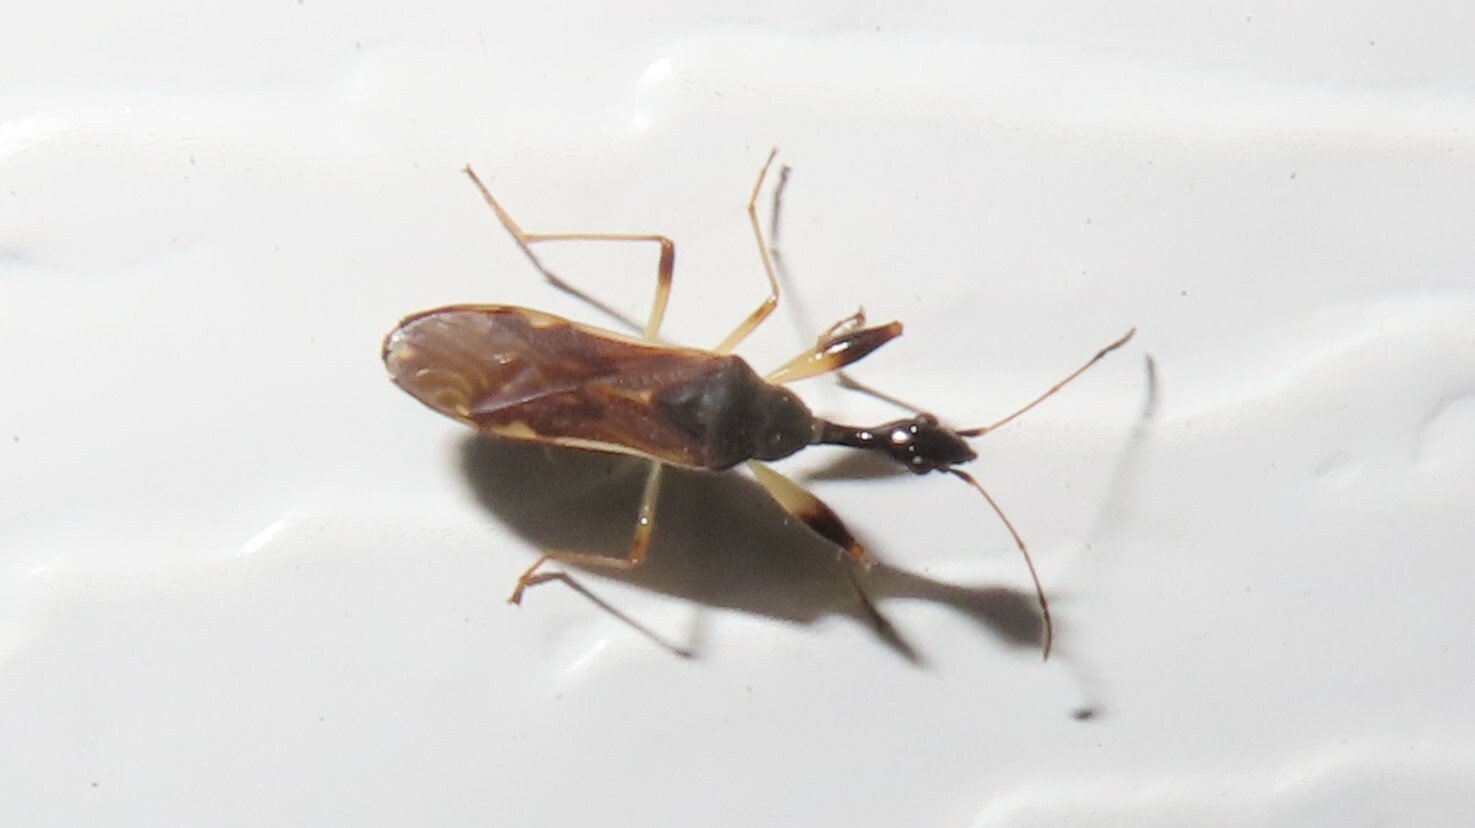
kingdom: Animalia
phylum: Arthropoda
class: Insecta
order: Hemiptera
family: Rhyparochromidae
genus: Myodocha
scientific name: Myodocha serripes
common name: Long-necked seed bug
